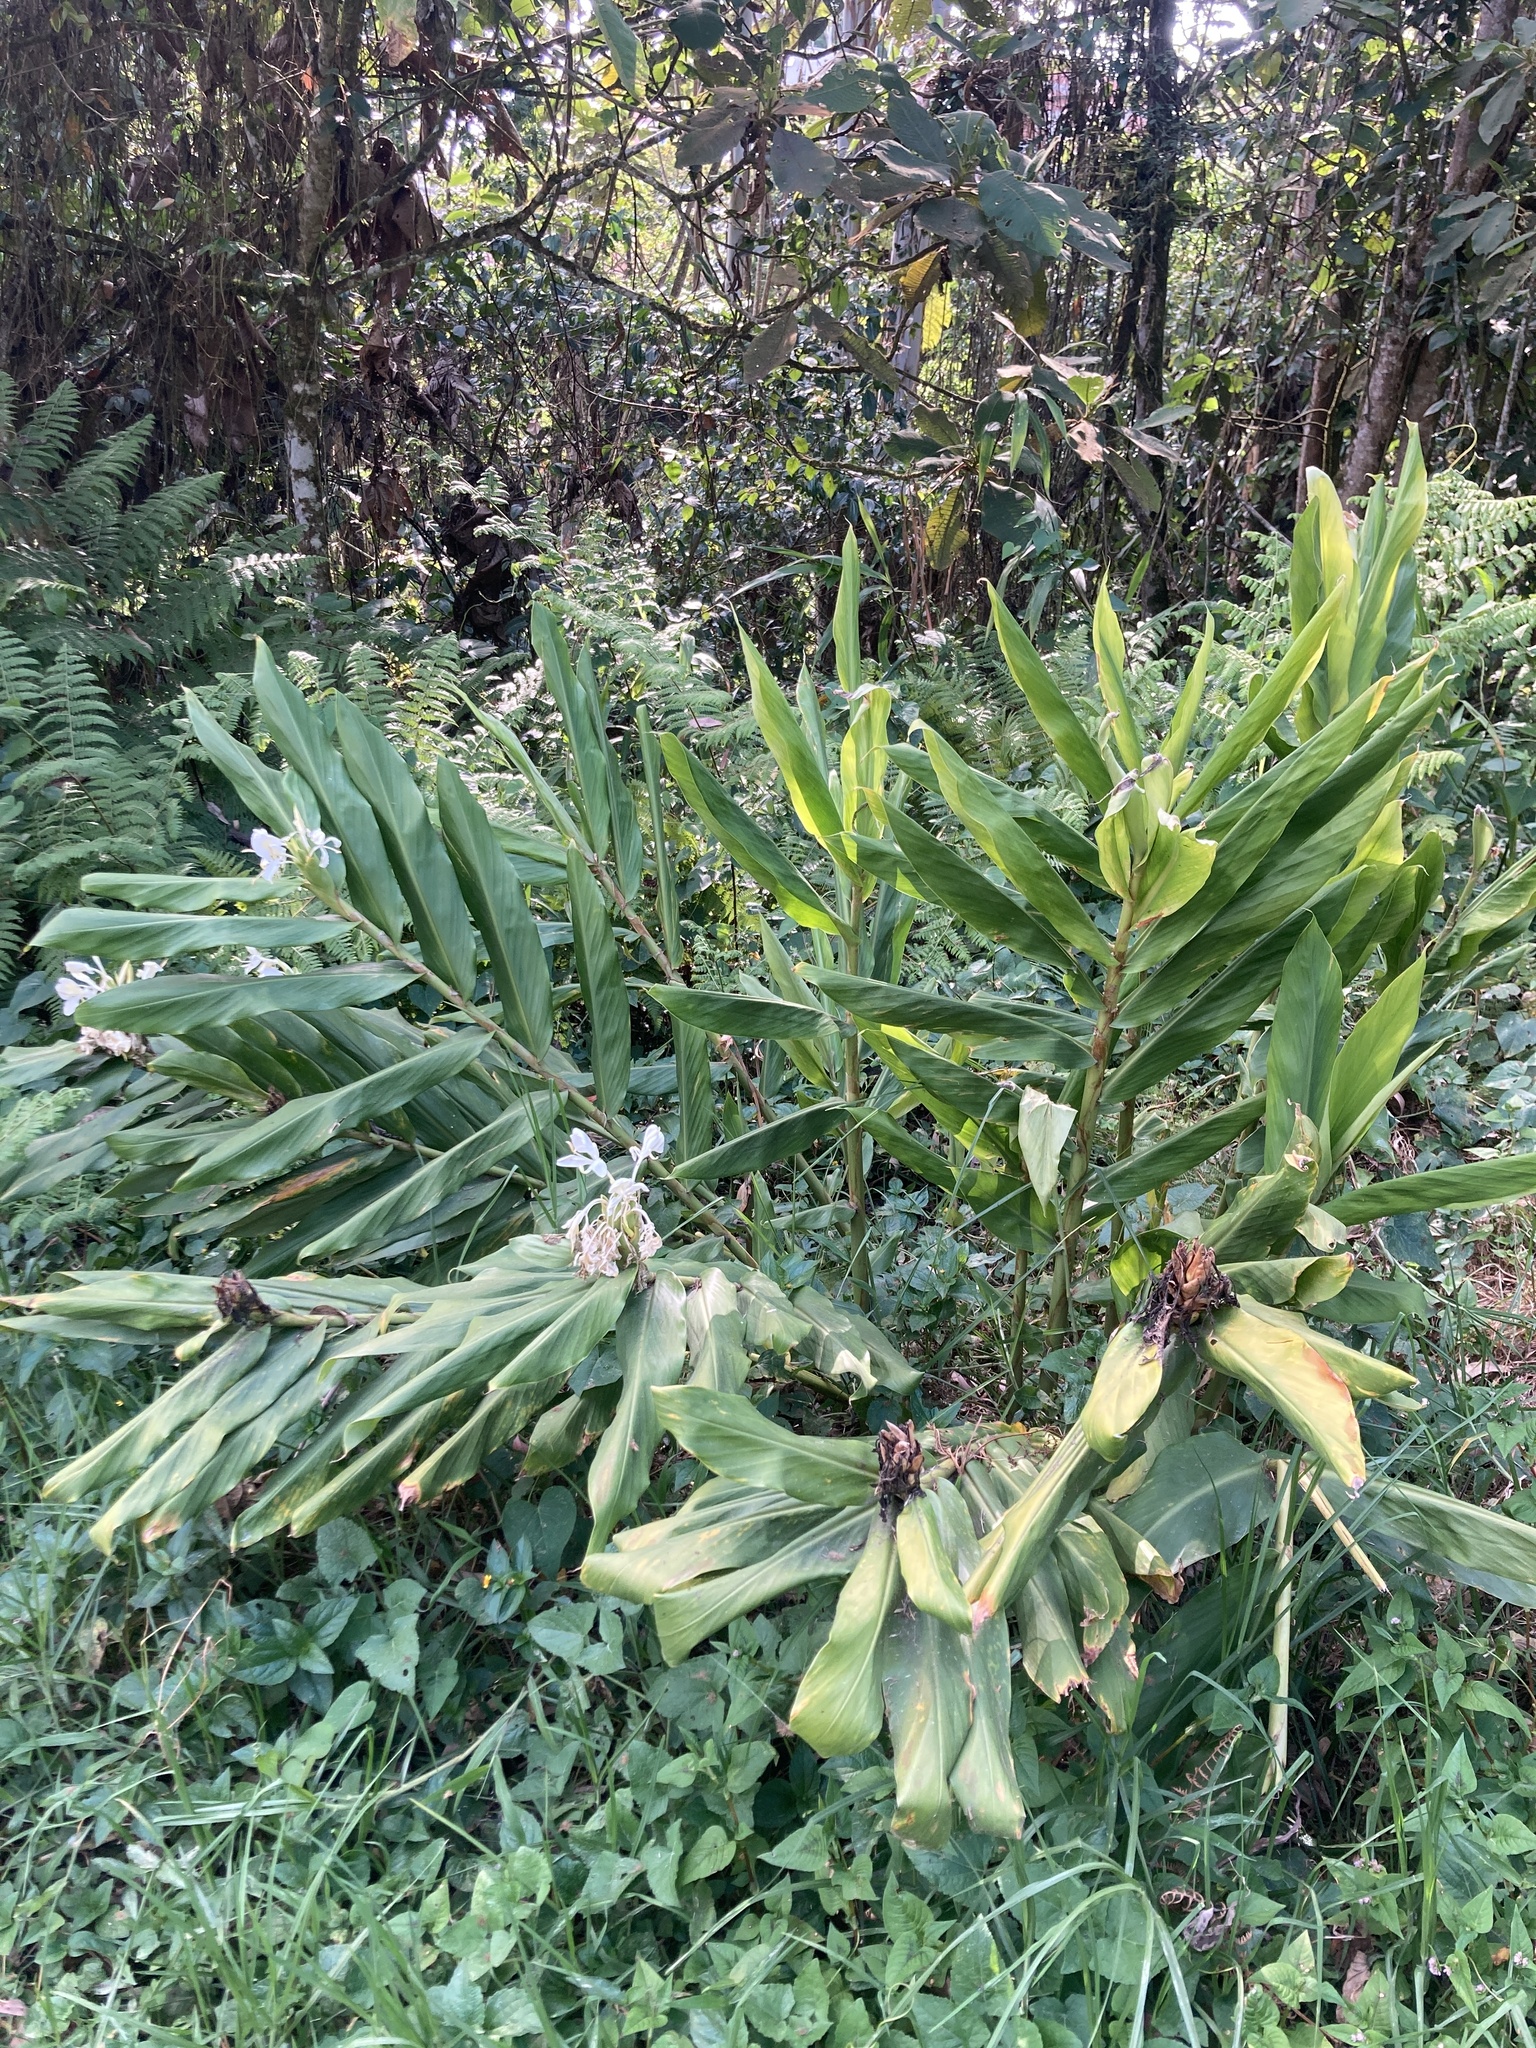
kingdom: Plantae
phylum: Tracheophyta
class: Liliopsida
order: Zingiberales
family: Zingiberaceae
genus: Hedychium
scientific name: Hedychium coronarium
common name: White garland-lily
